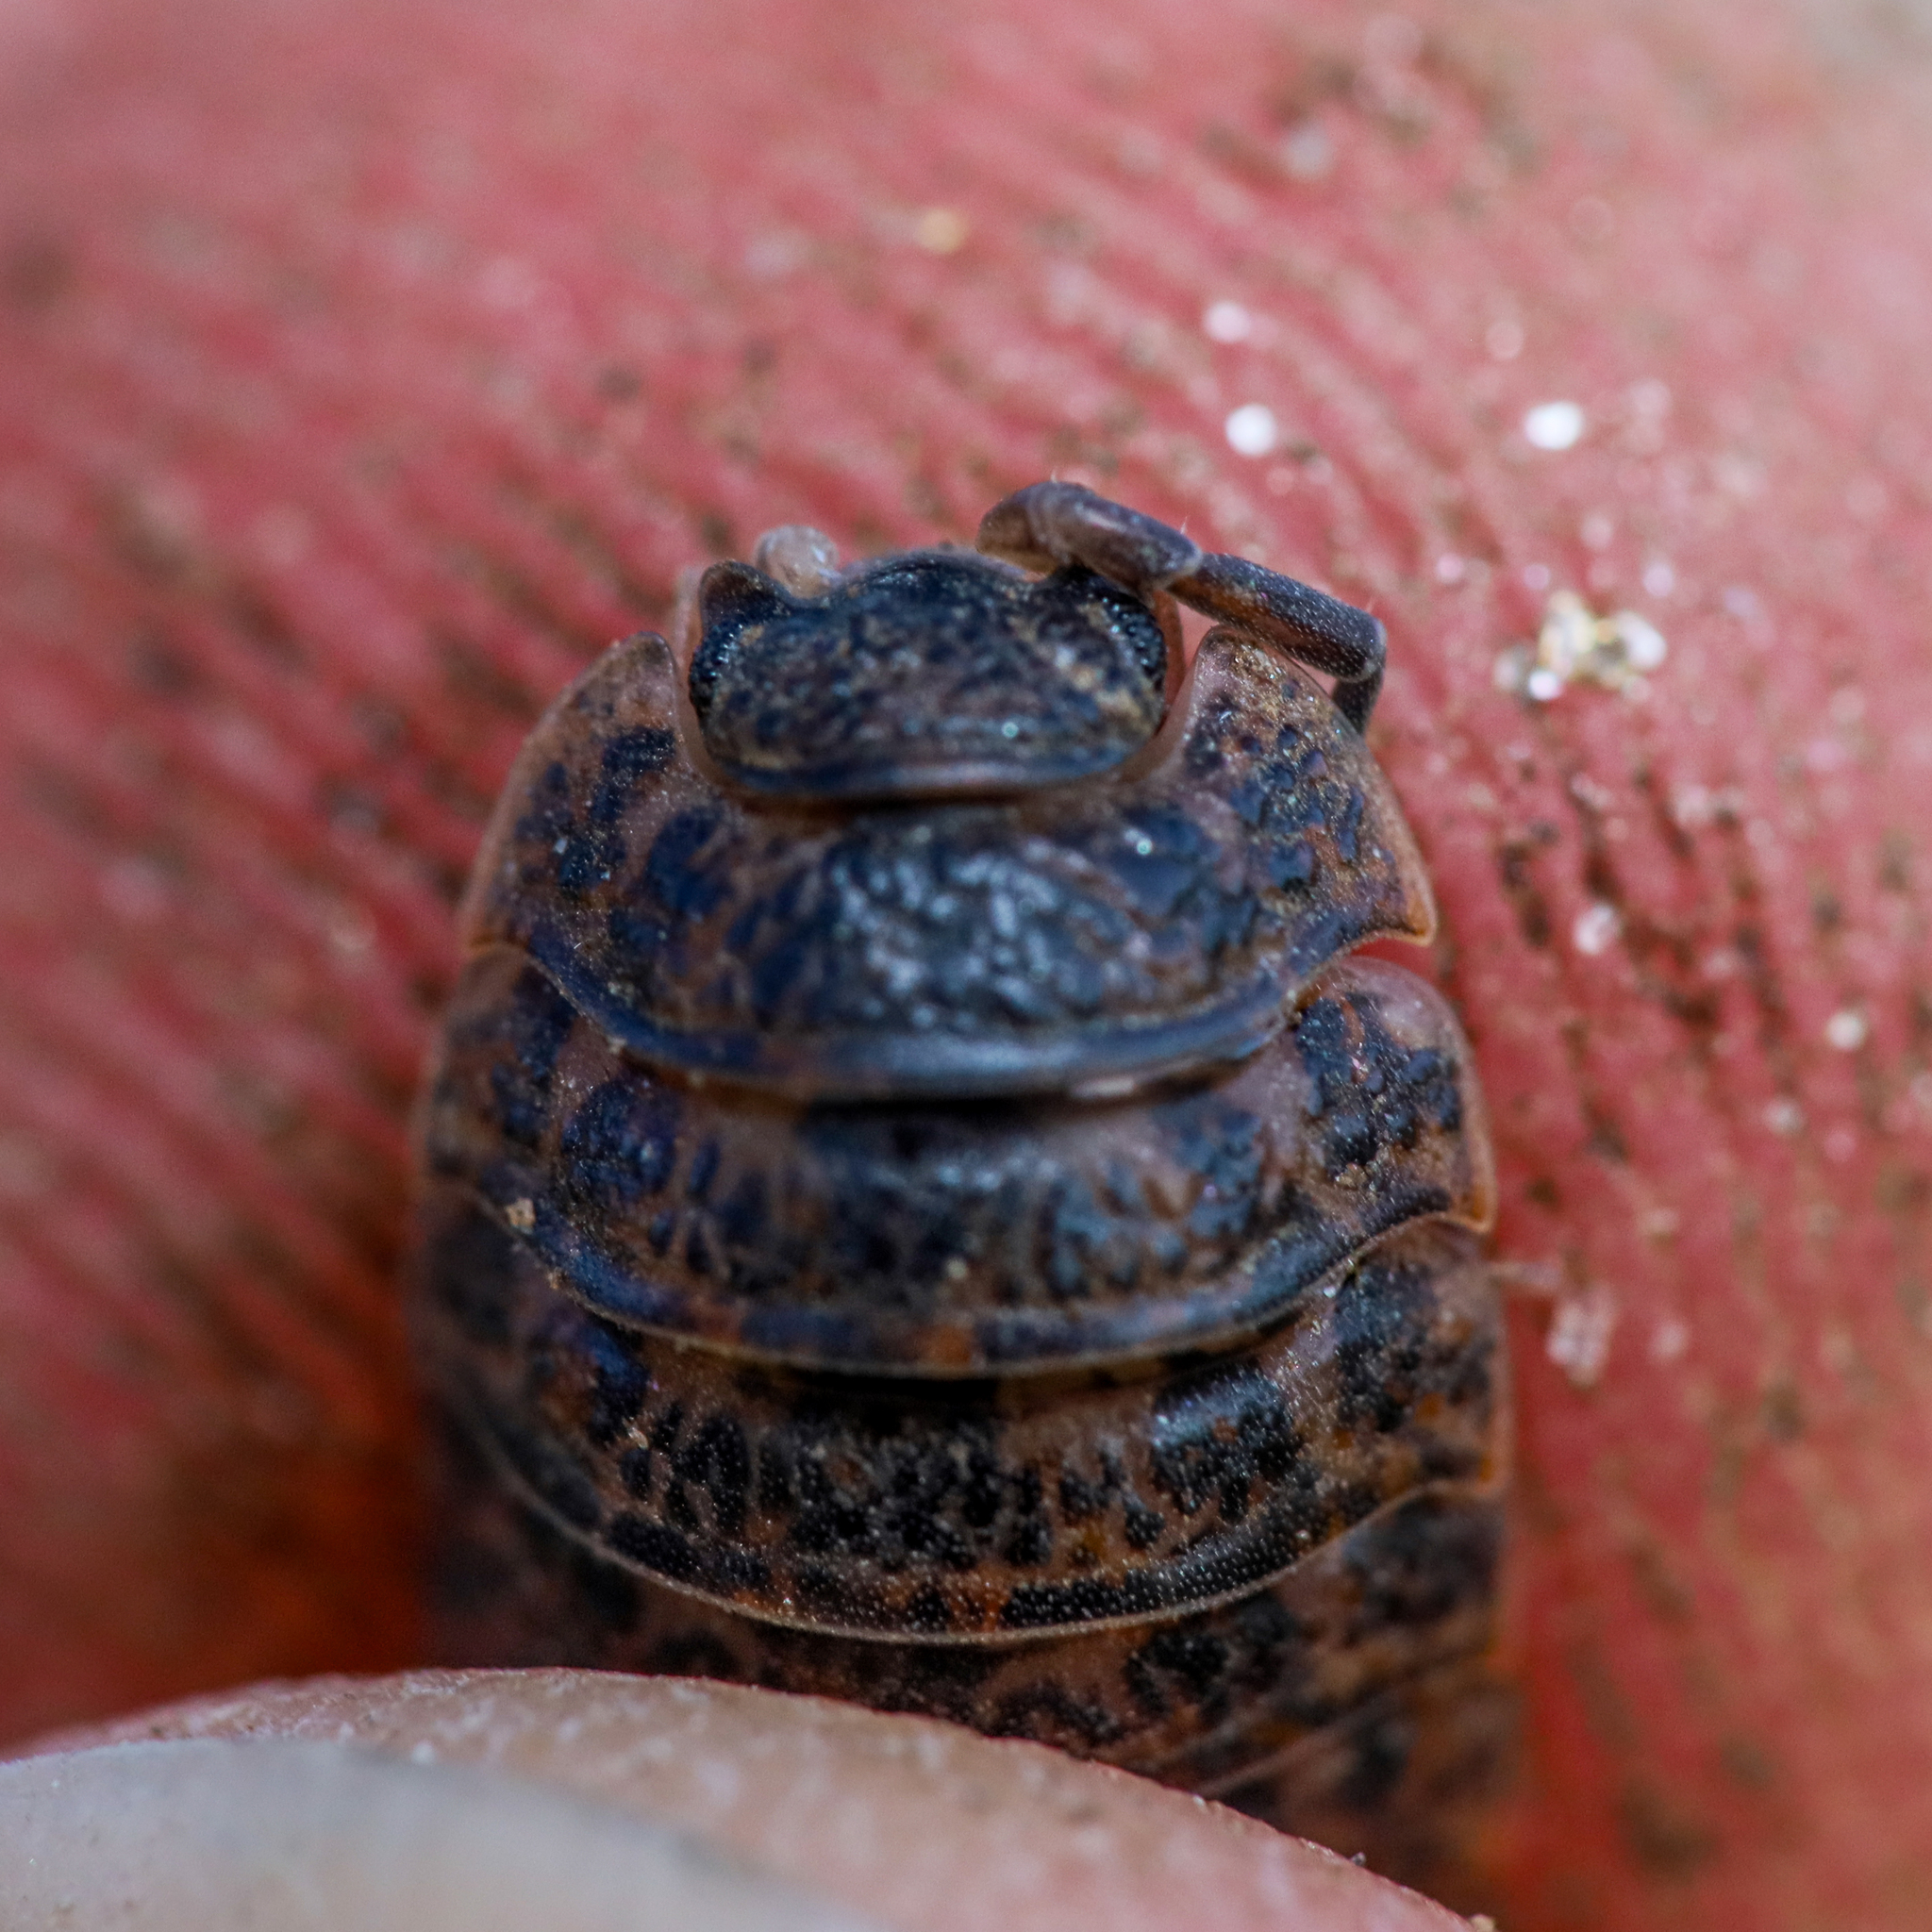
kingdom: Animalia
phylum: Arthropoda
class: Malacostraca
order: Isopoda
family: Trachelipodidae
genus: Trachelipus
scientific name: Trachelipus rathkii
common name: Isopod
